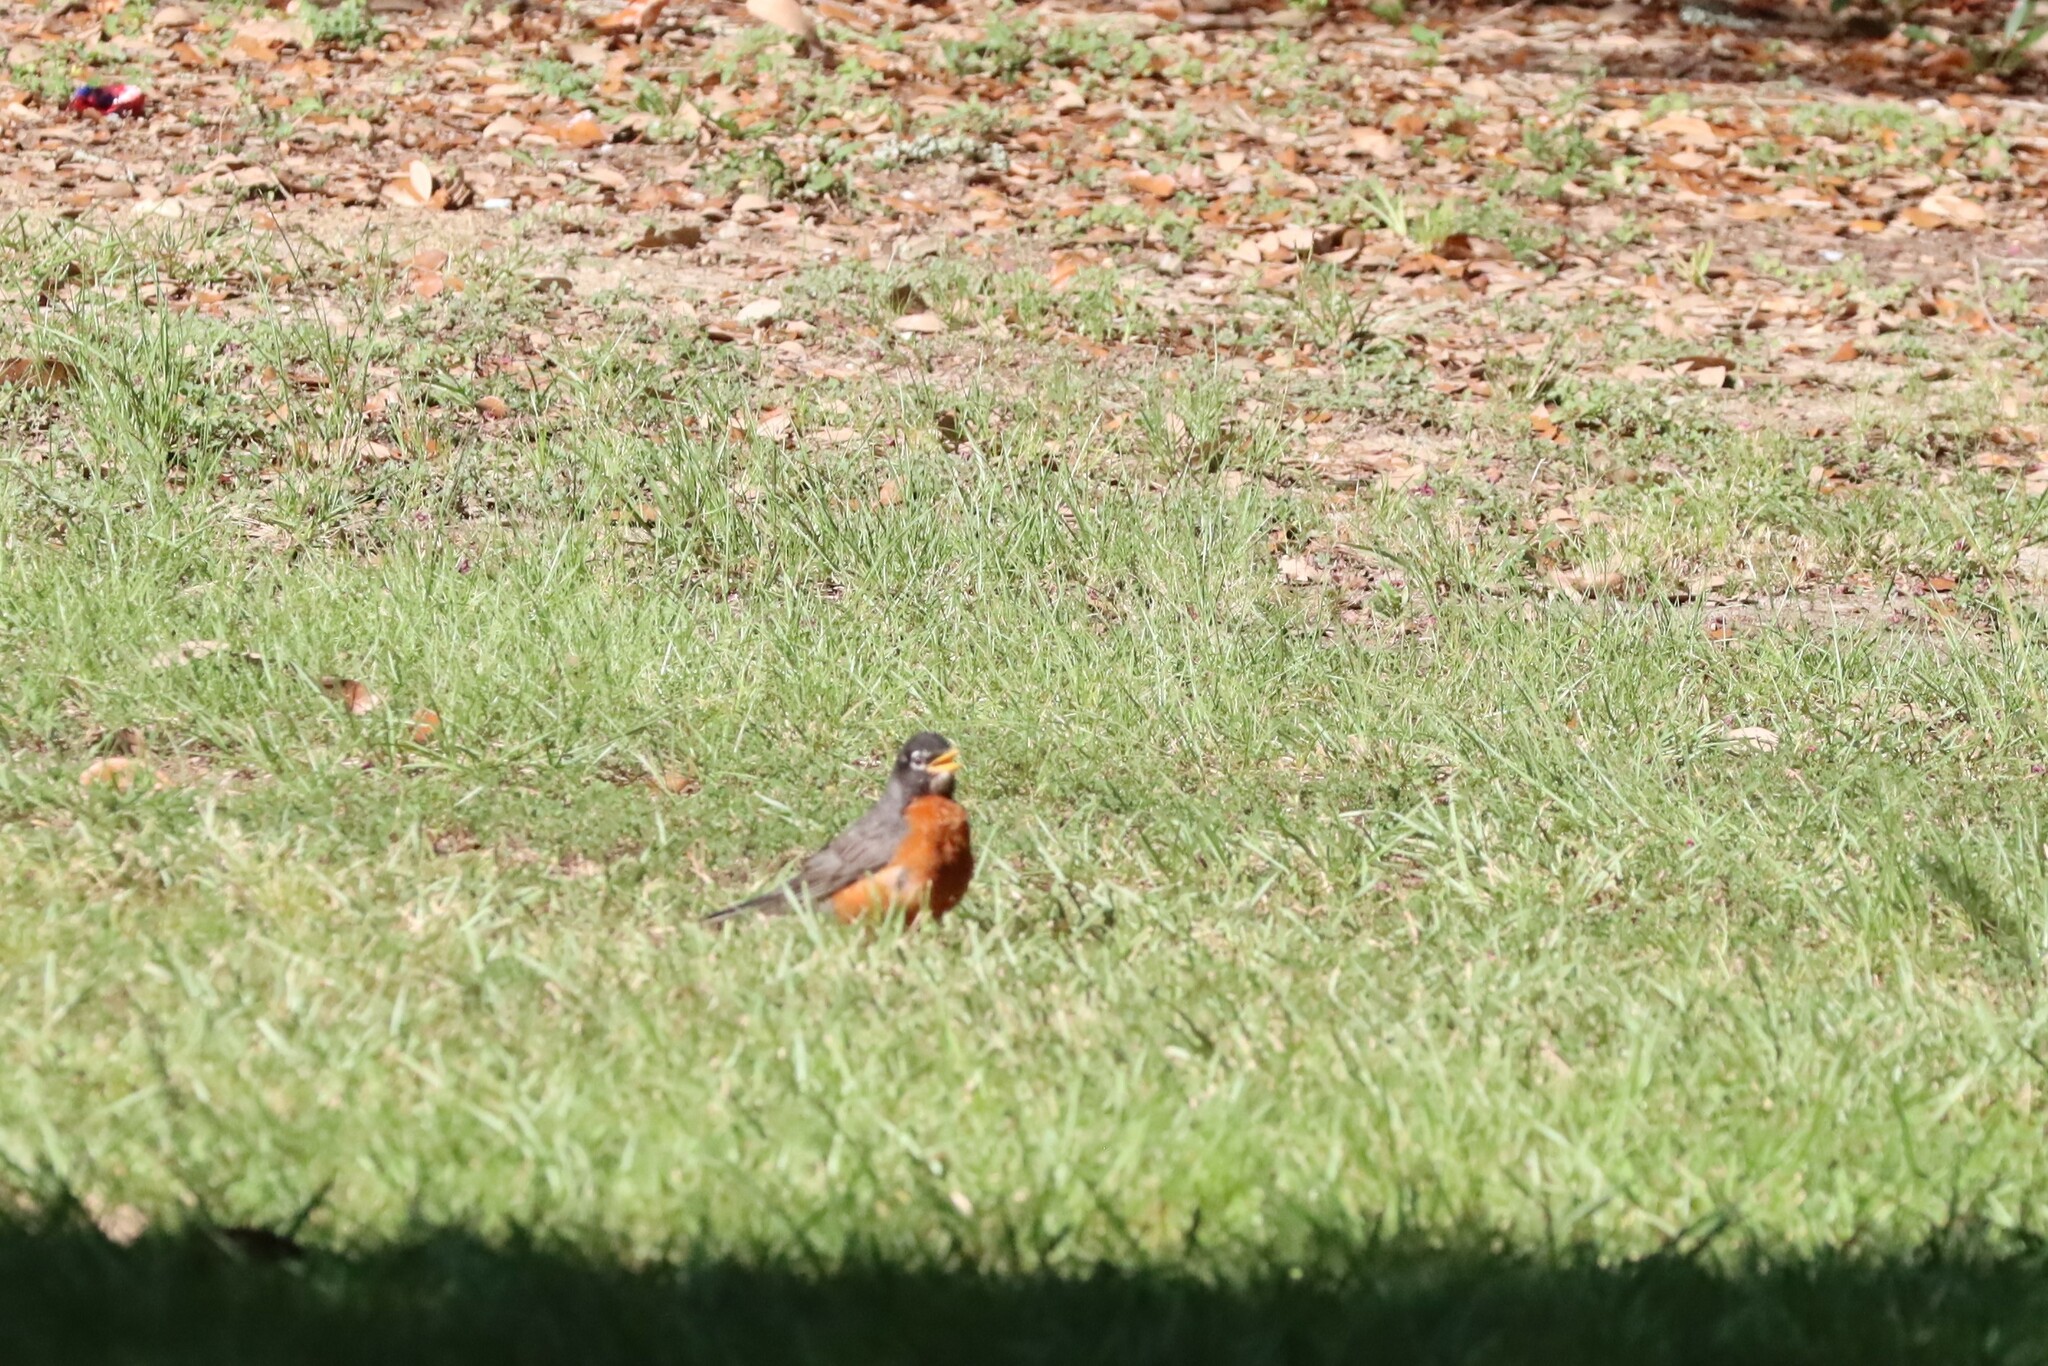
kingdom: Animalia
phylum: Chordata
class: Aves
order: Passeriformes
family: Turdidae
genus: Turdus
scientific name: Turdus migratorius
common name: American robin
